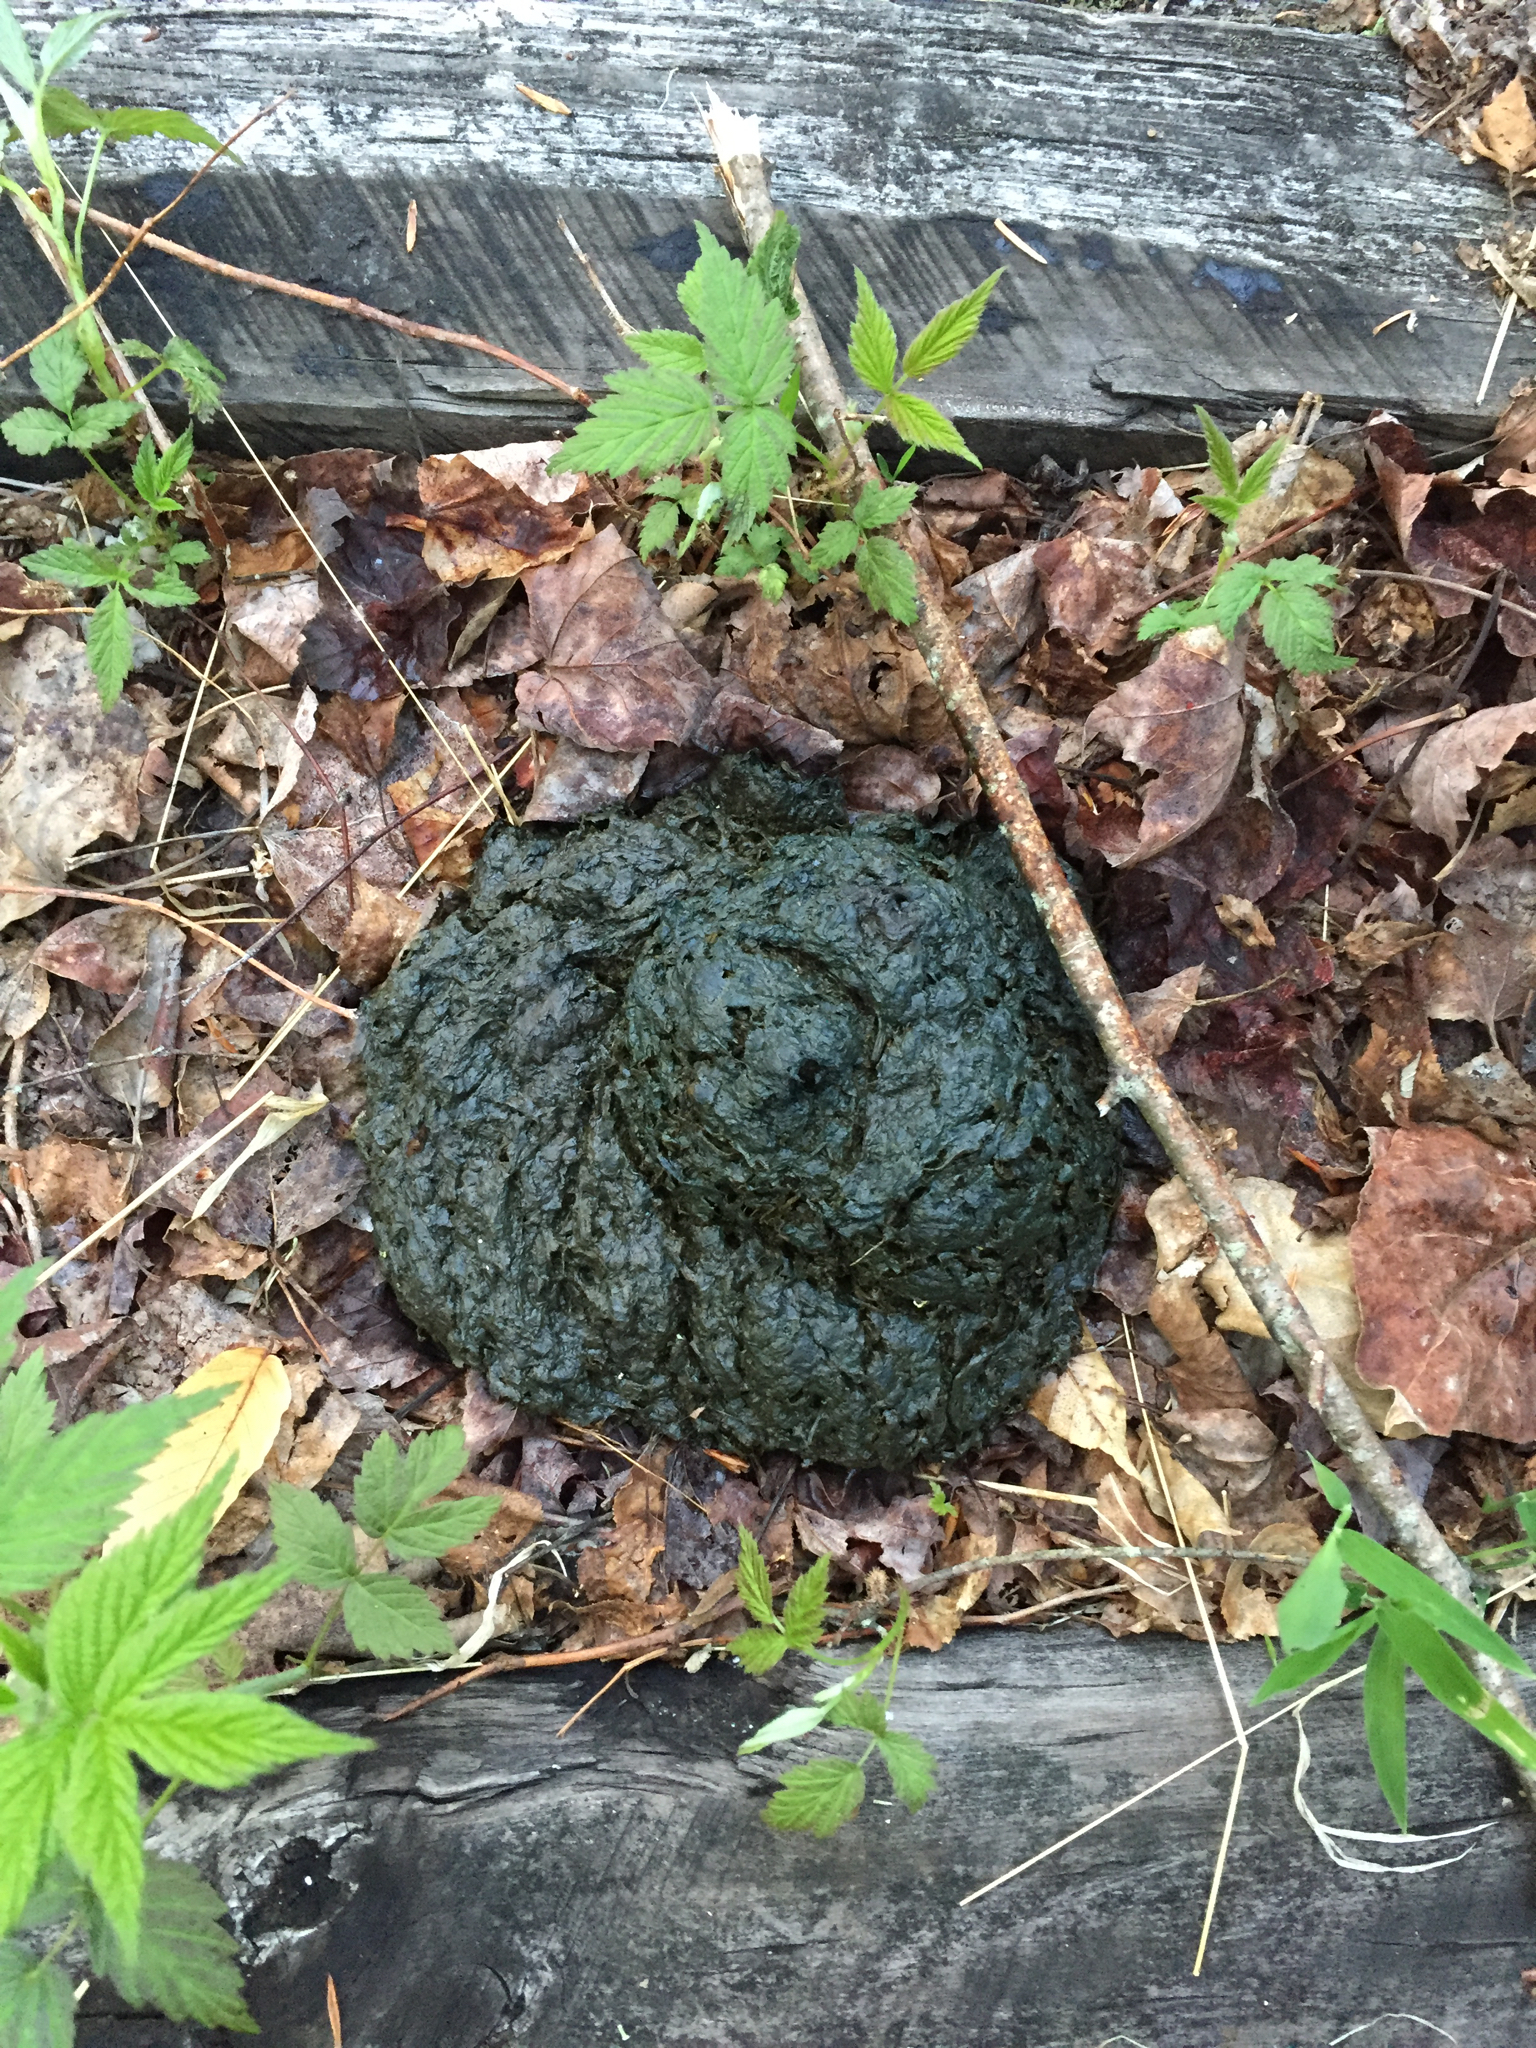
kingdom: Animalia
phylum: Chordata
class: Mammalia
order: Artiodactyla
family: Cervidae
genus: Alces
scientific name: Alces alces
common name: Moose
